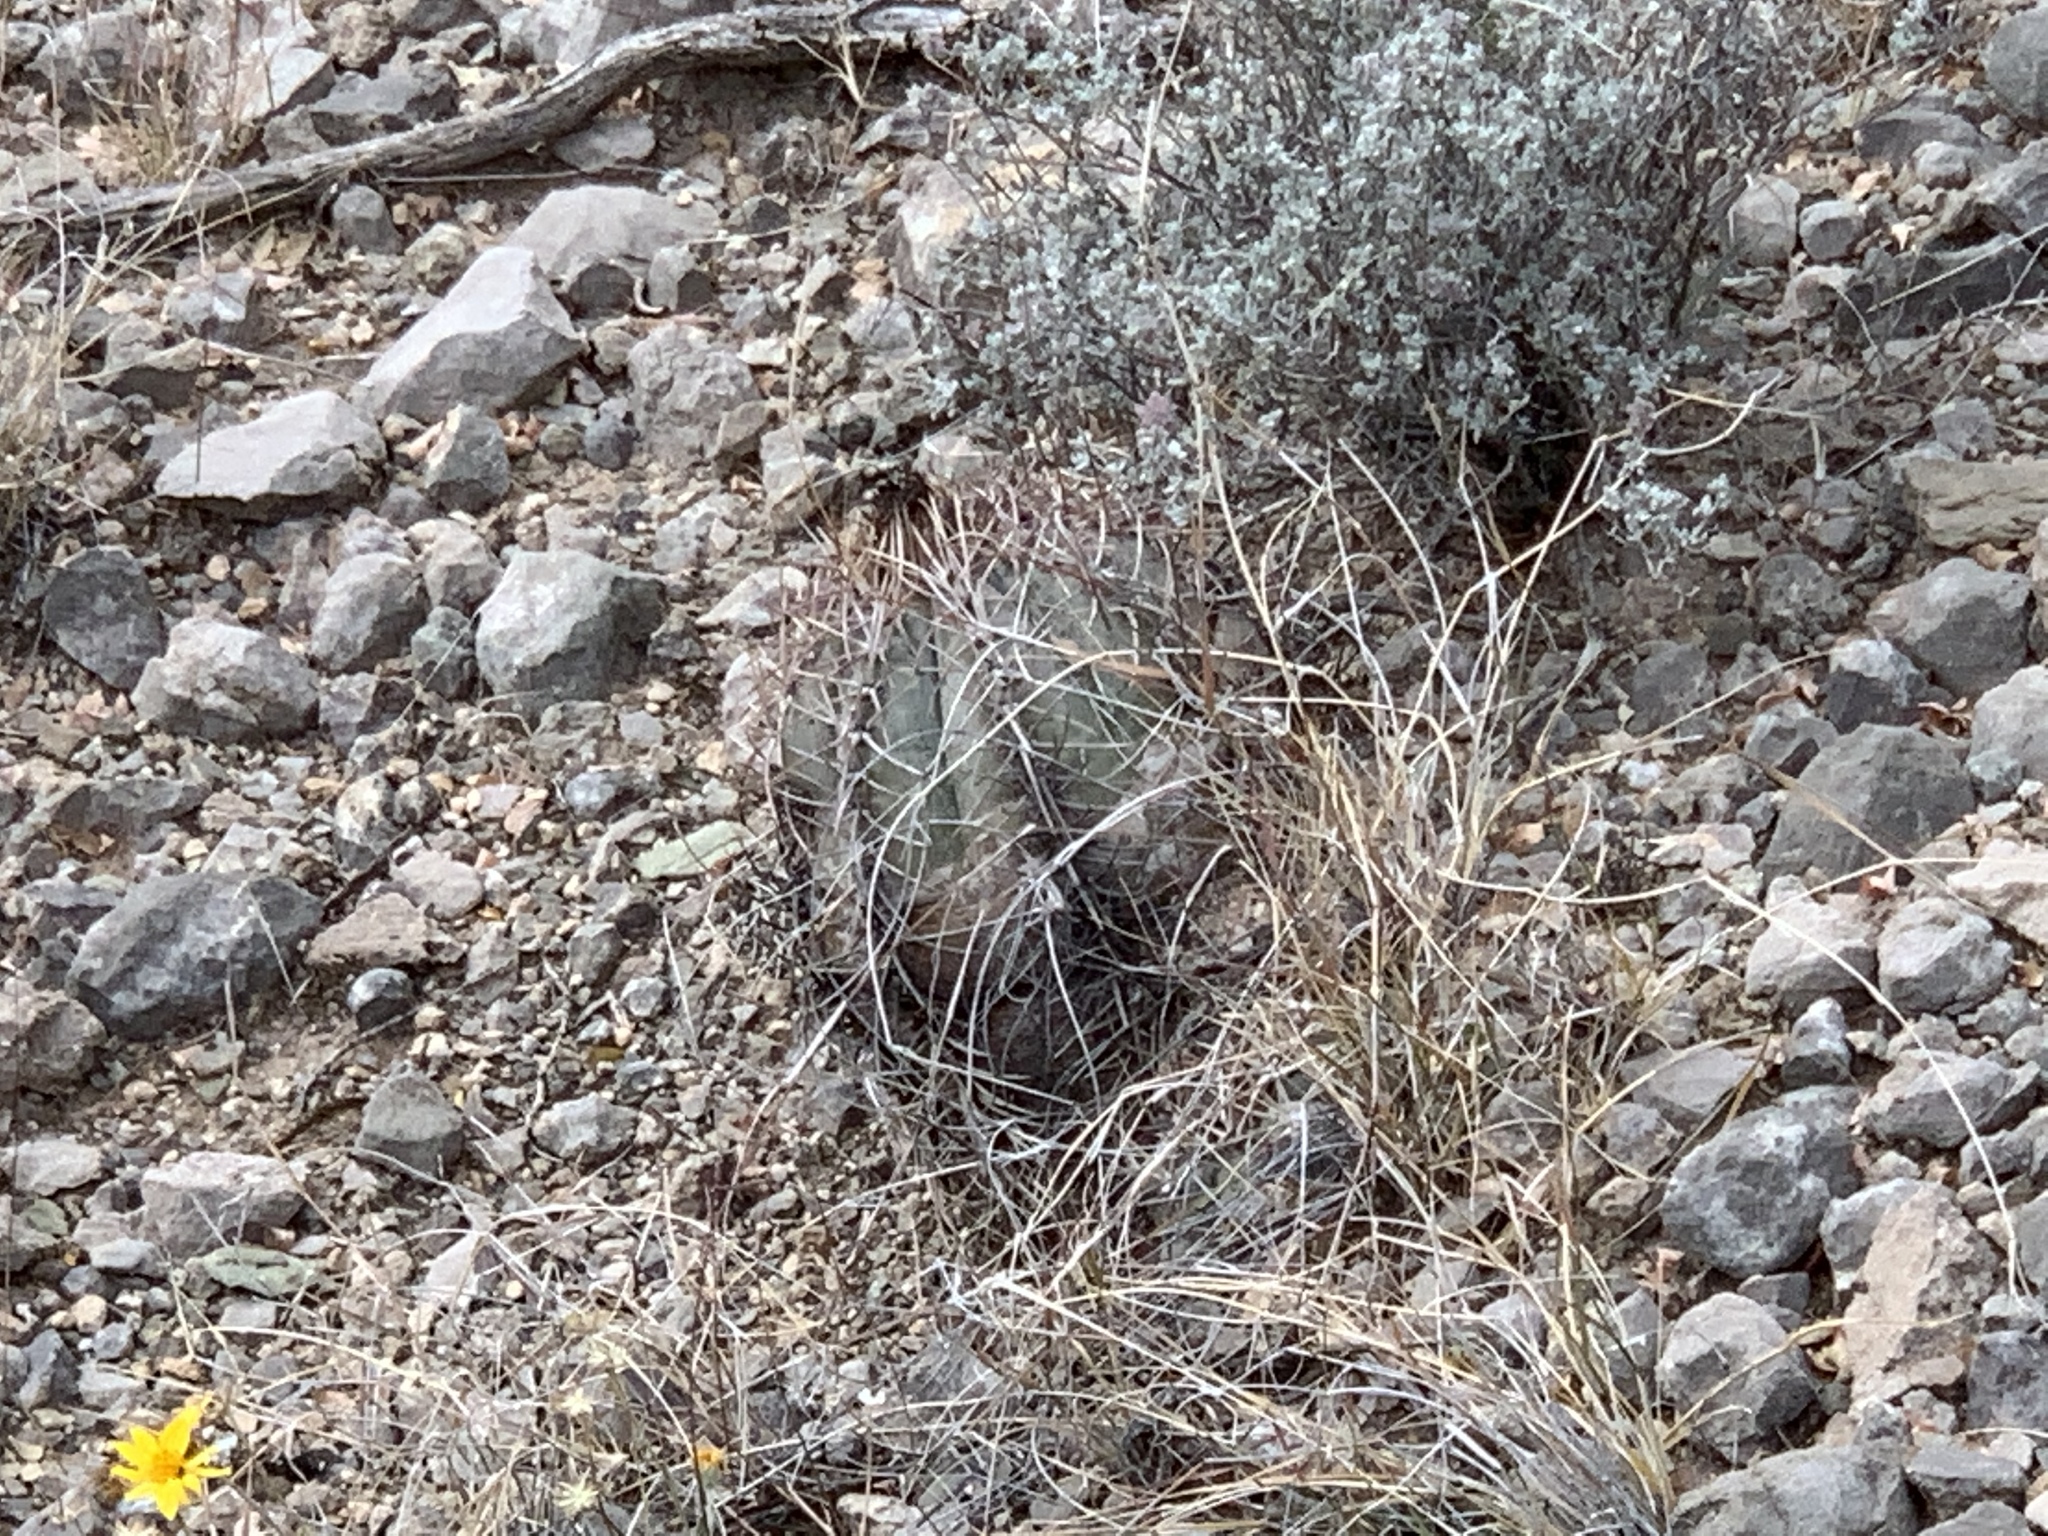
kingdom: Plantae
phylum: Tracheophyta
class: Magnoliopsida
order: Caryophyllales
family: Cactaceae
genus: Echinocactus
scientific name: Echinocactus horizonthalonius
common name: Devilshead
